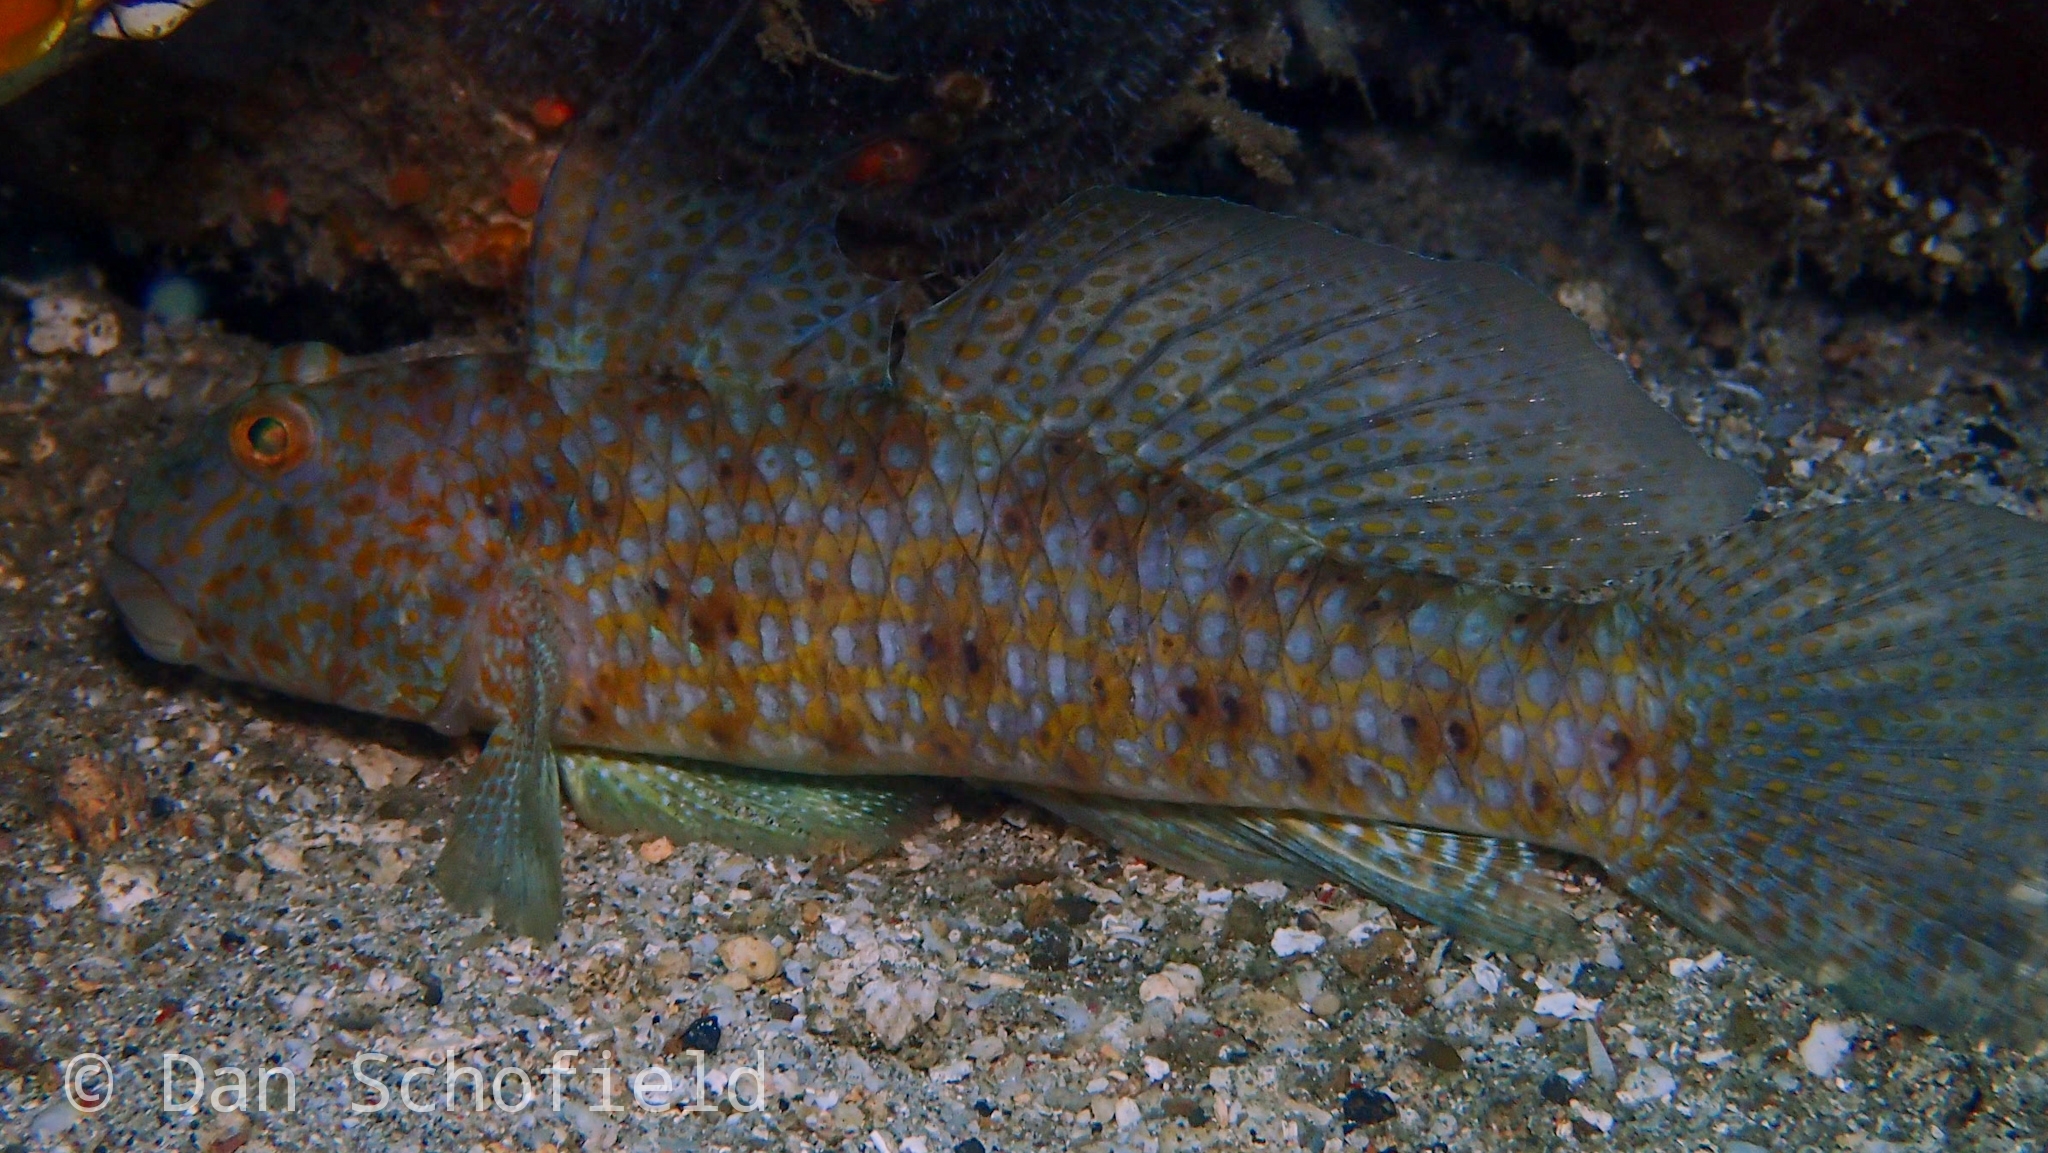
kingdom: Animalia
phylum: Chordata
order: Perciformes
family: Gobiidae
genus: Exyrias
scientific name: Exyrias akihito
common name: Akihito's goby
